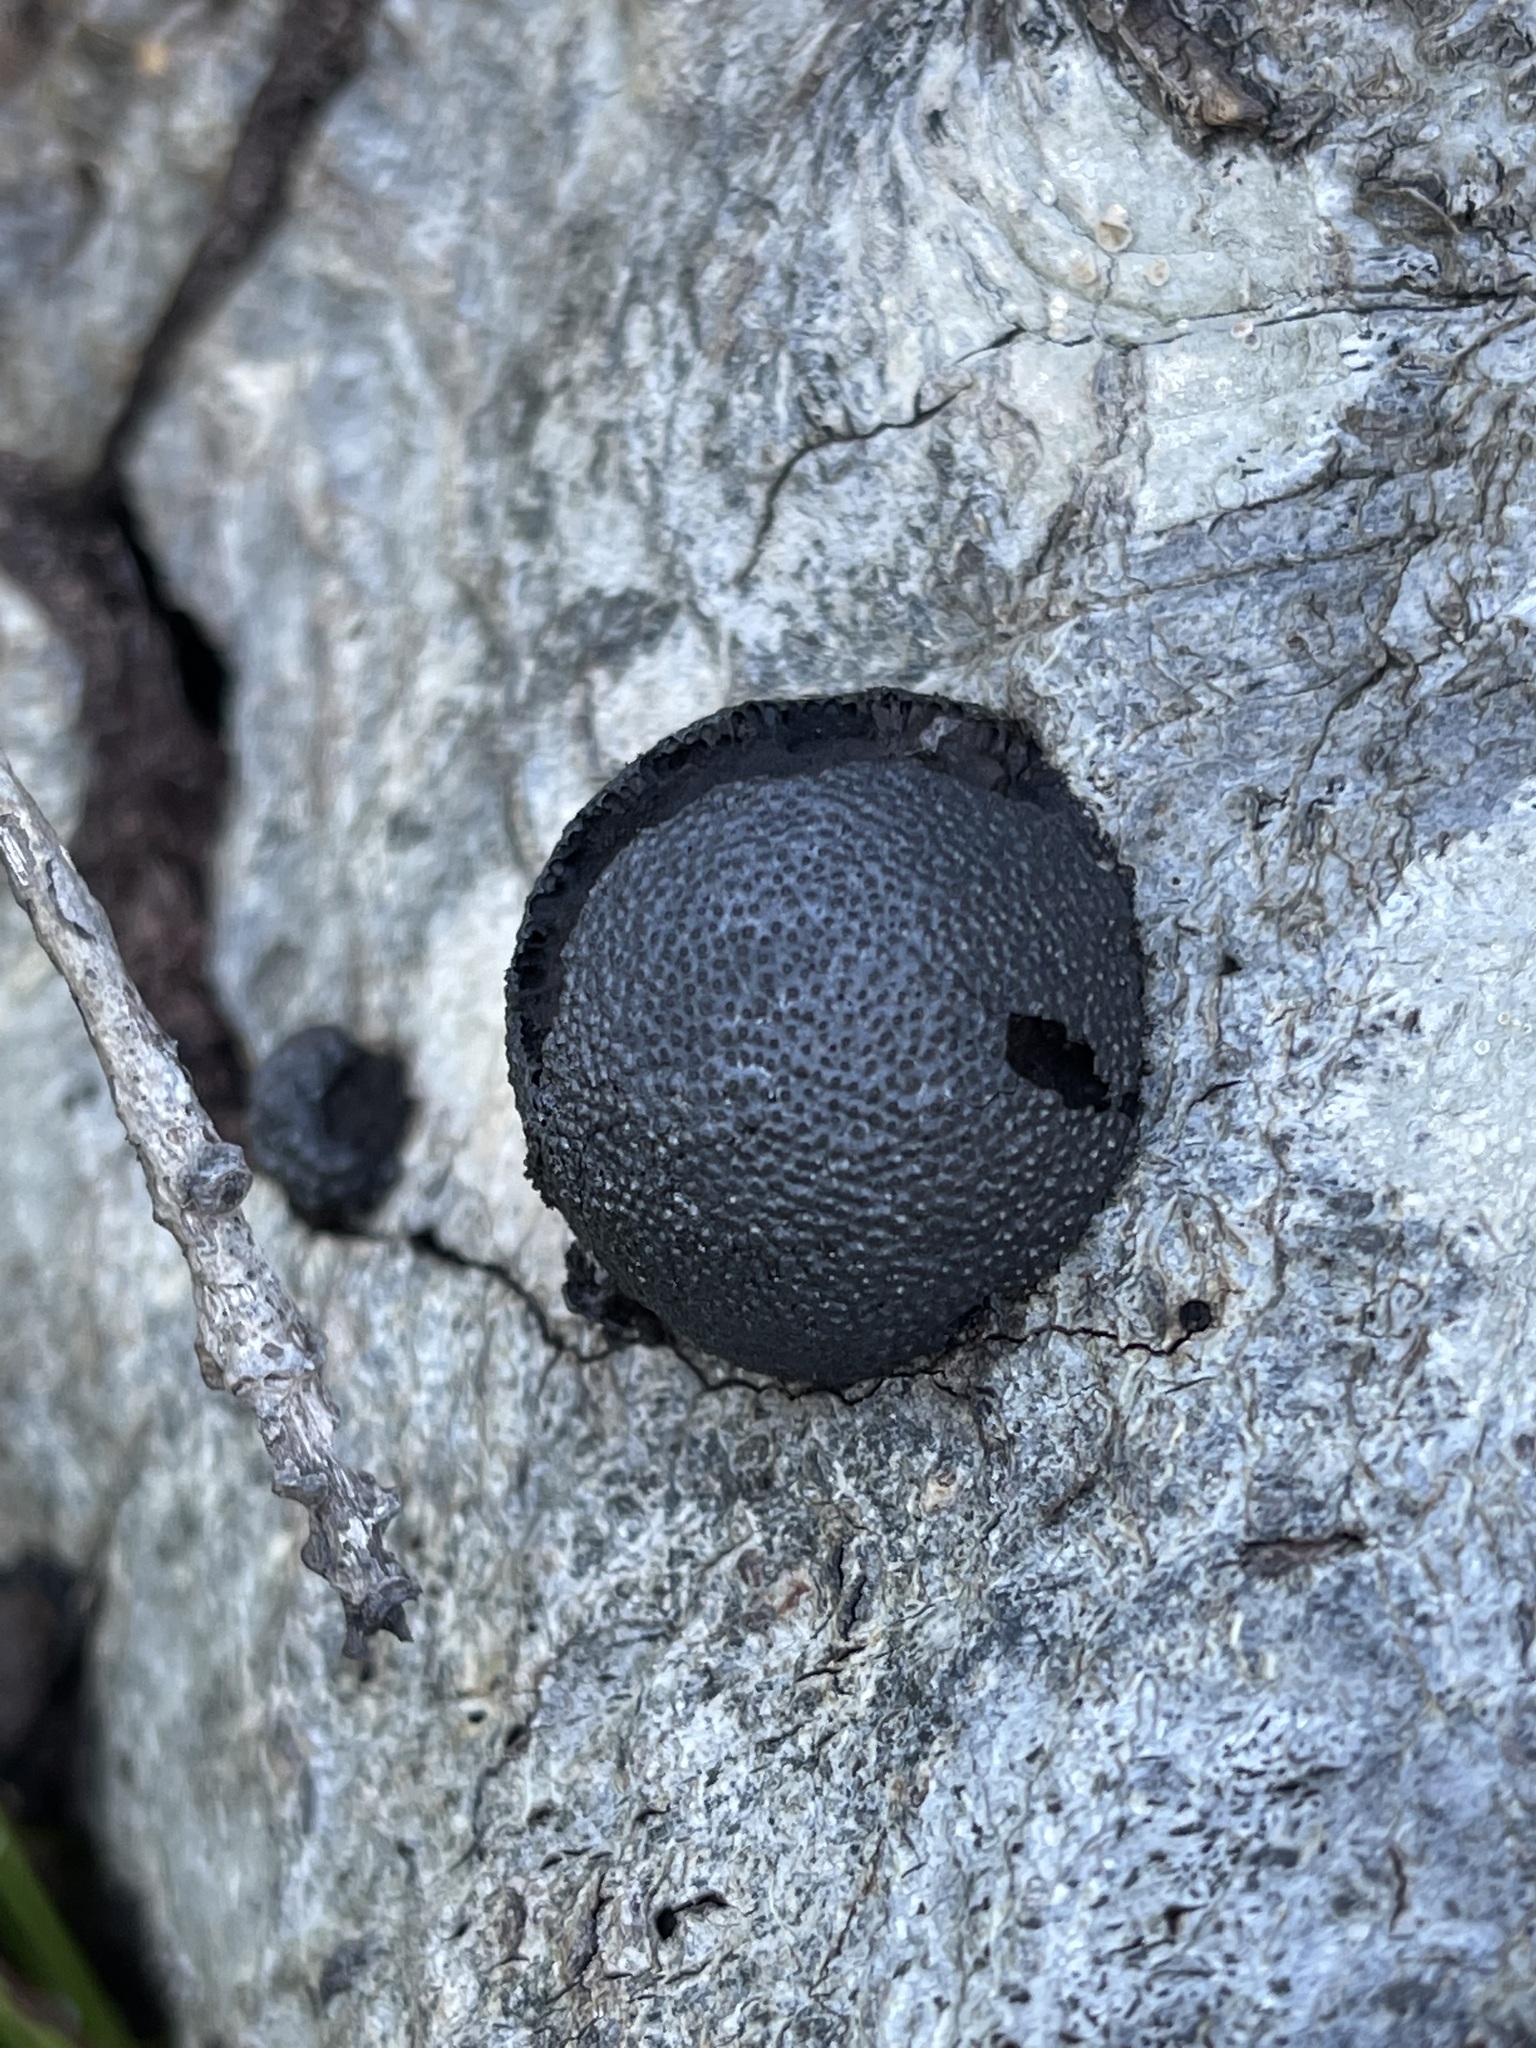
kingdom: Fungi
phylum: Ascomycota
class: Sordariomycetes
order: Xylariales
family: Hypoxylaceae
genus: Annulohypoxylon
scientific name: Annulohypoxylon thouarsianum
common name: Cramp balls
